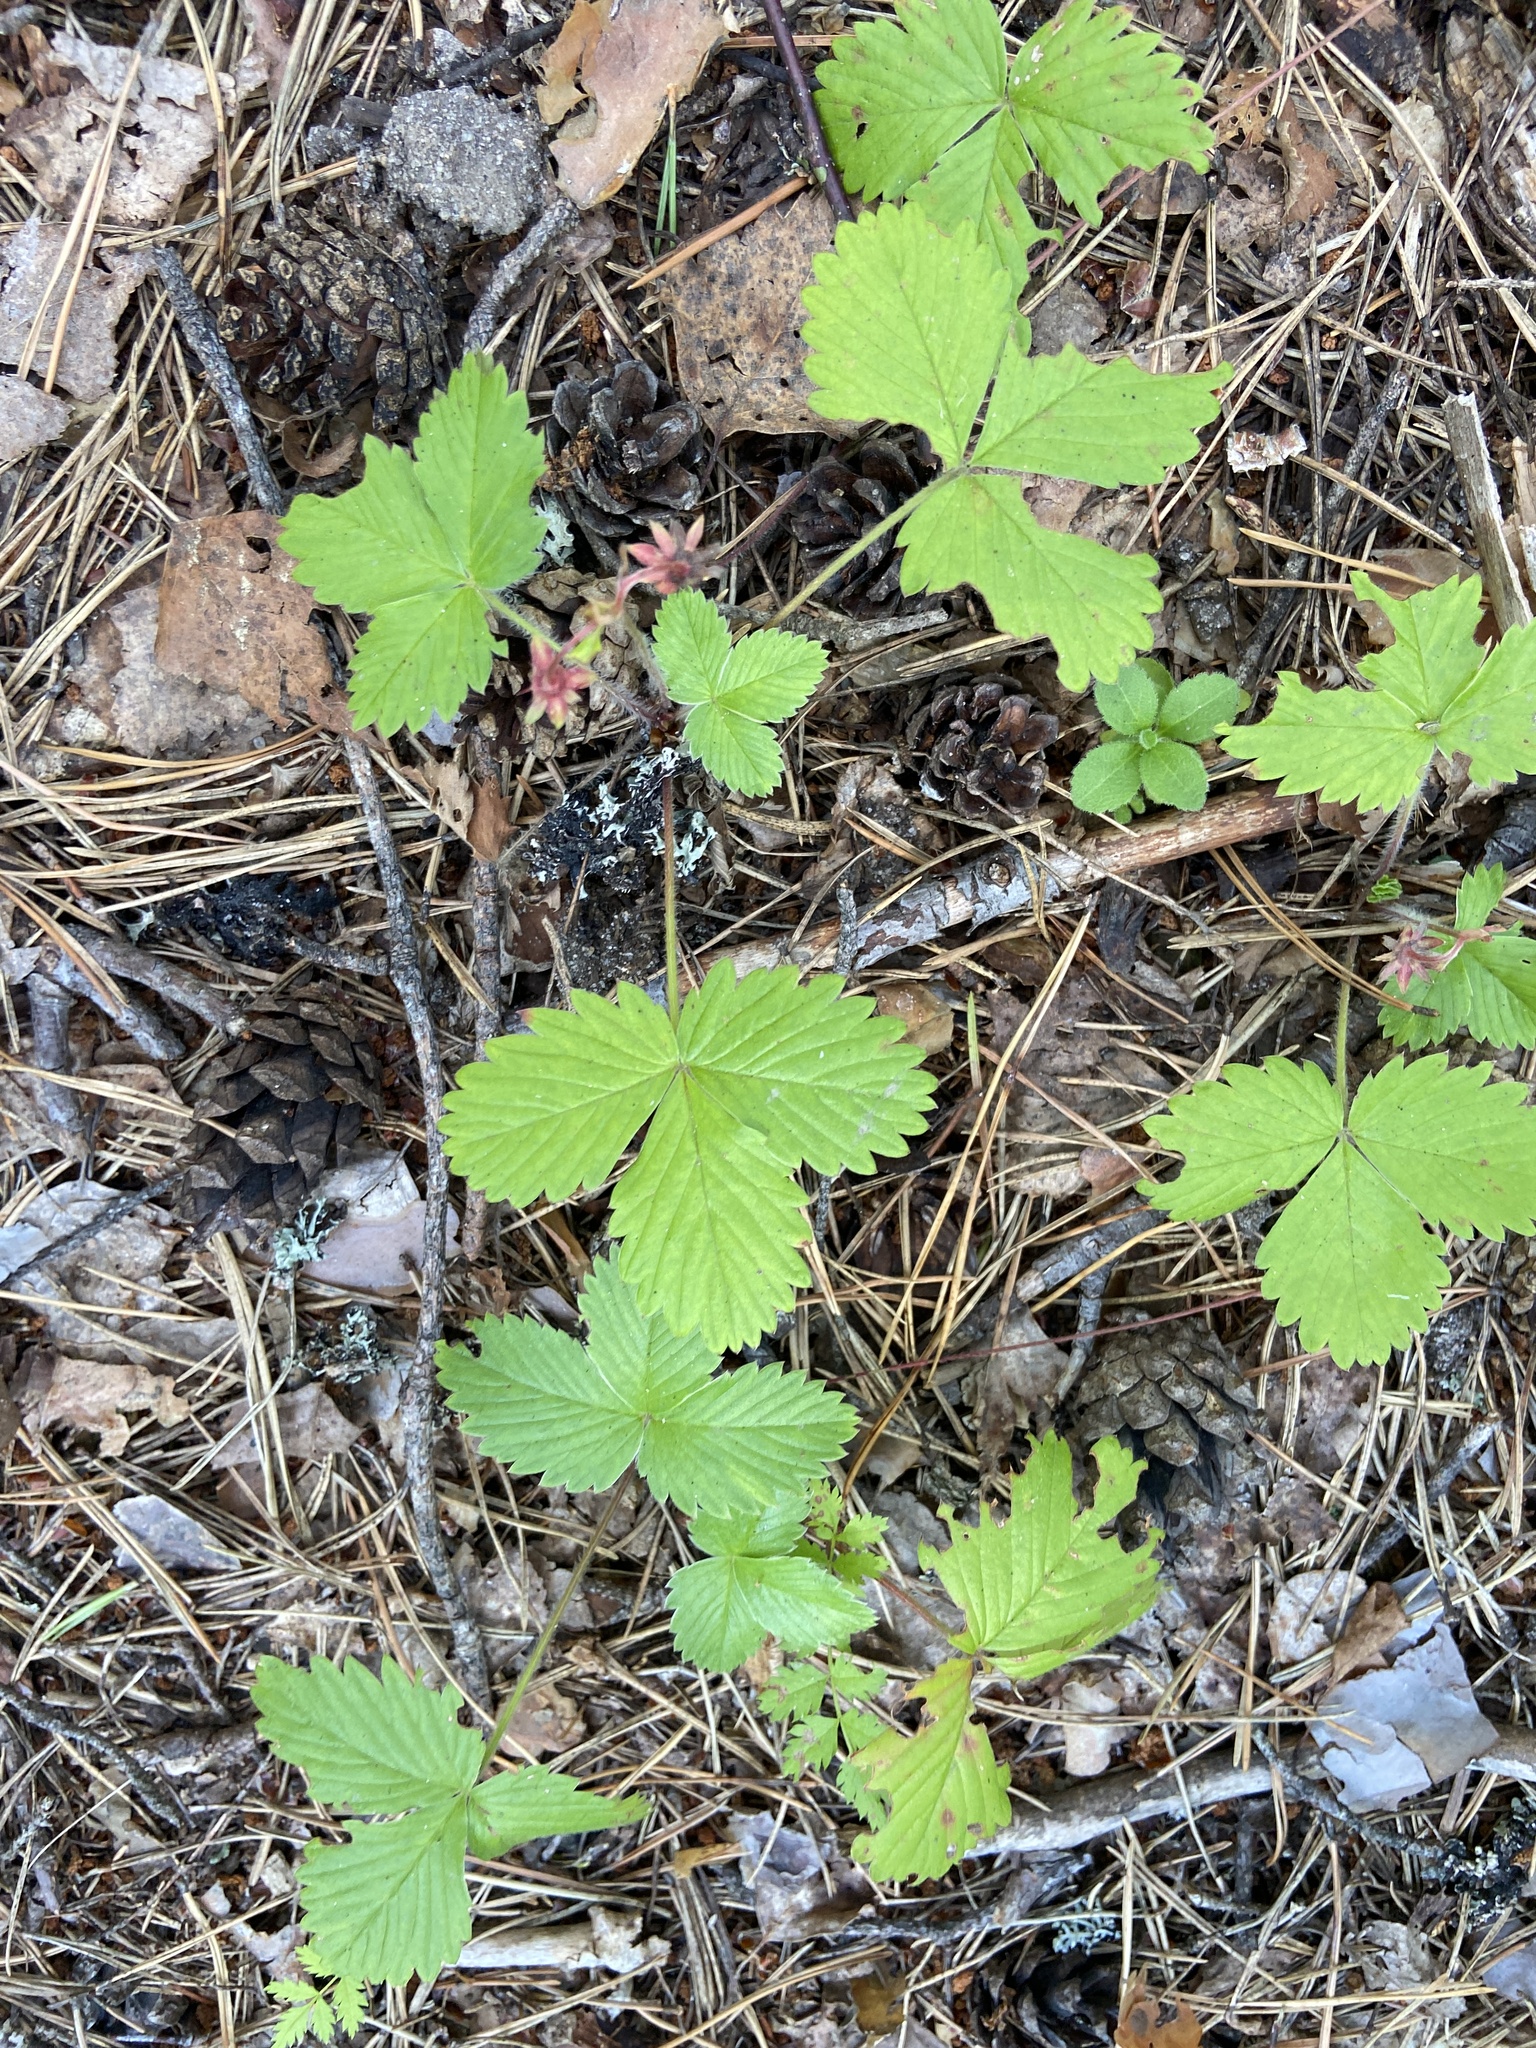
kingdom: Plantae
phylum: Tracheophyta
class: Magnoliopsida
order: Rosales
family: Rosaceae
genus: Fragaria
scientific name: Fragaria vesca
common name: Wild strawberry
